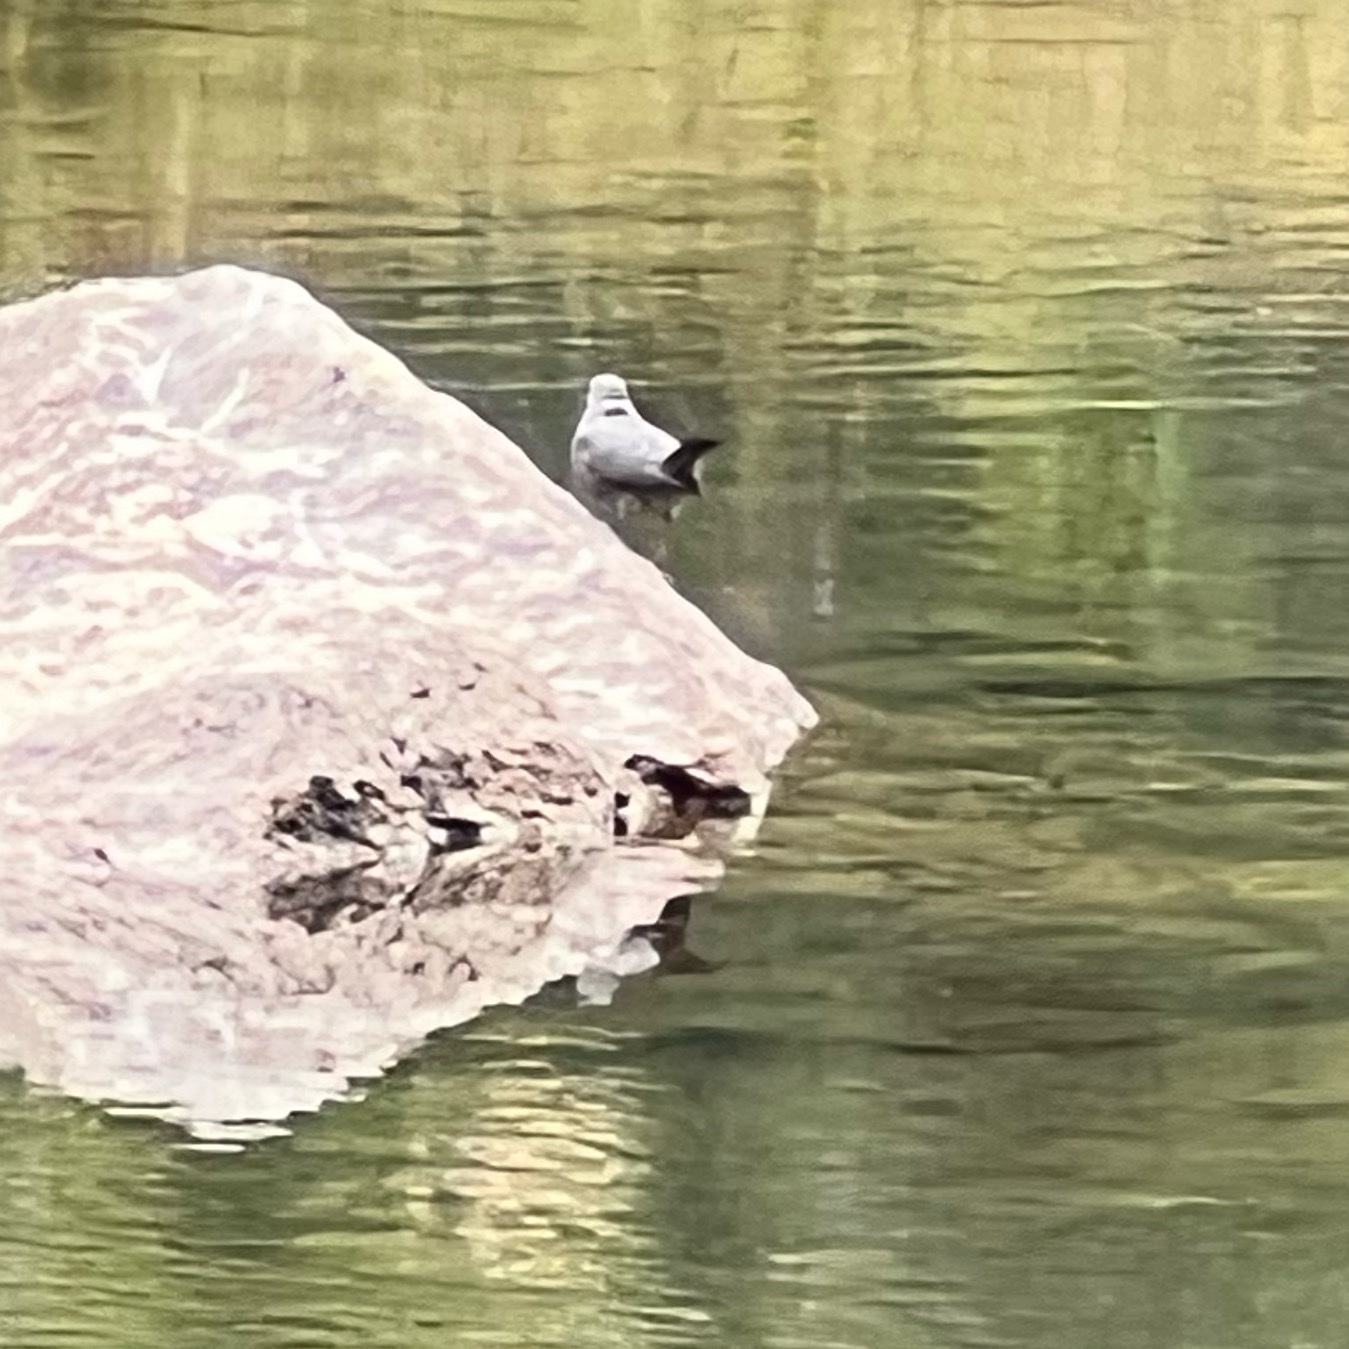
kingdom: Animalia
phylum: Chordata
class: Aves
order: Passeriformes
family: Cinclidae
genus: Cinclus
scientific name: Cinclus mexicanus
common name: American dipper
